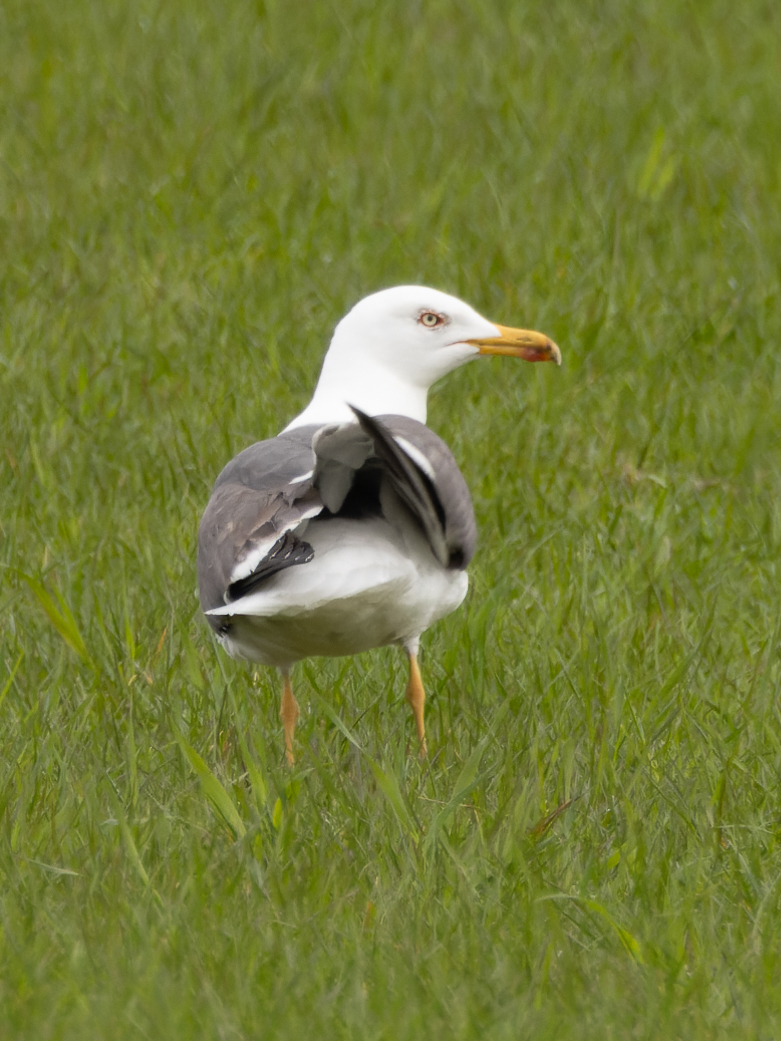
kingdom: Animalia
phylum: Chordata
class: Aves
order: Charadriiformes
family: Laridae
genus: Larus
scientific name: Larus fuscus
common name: Lesser black-backed gull
